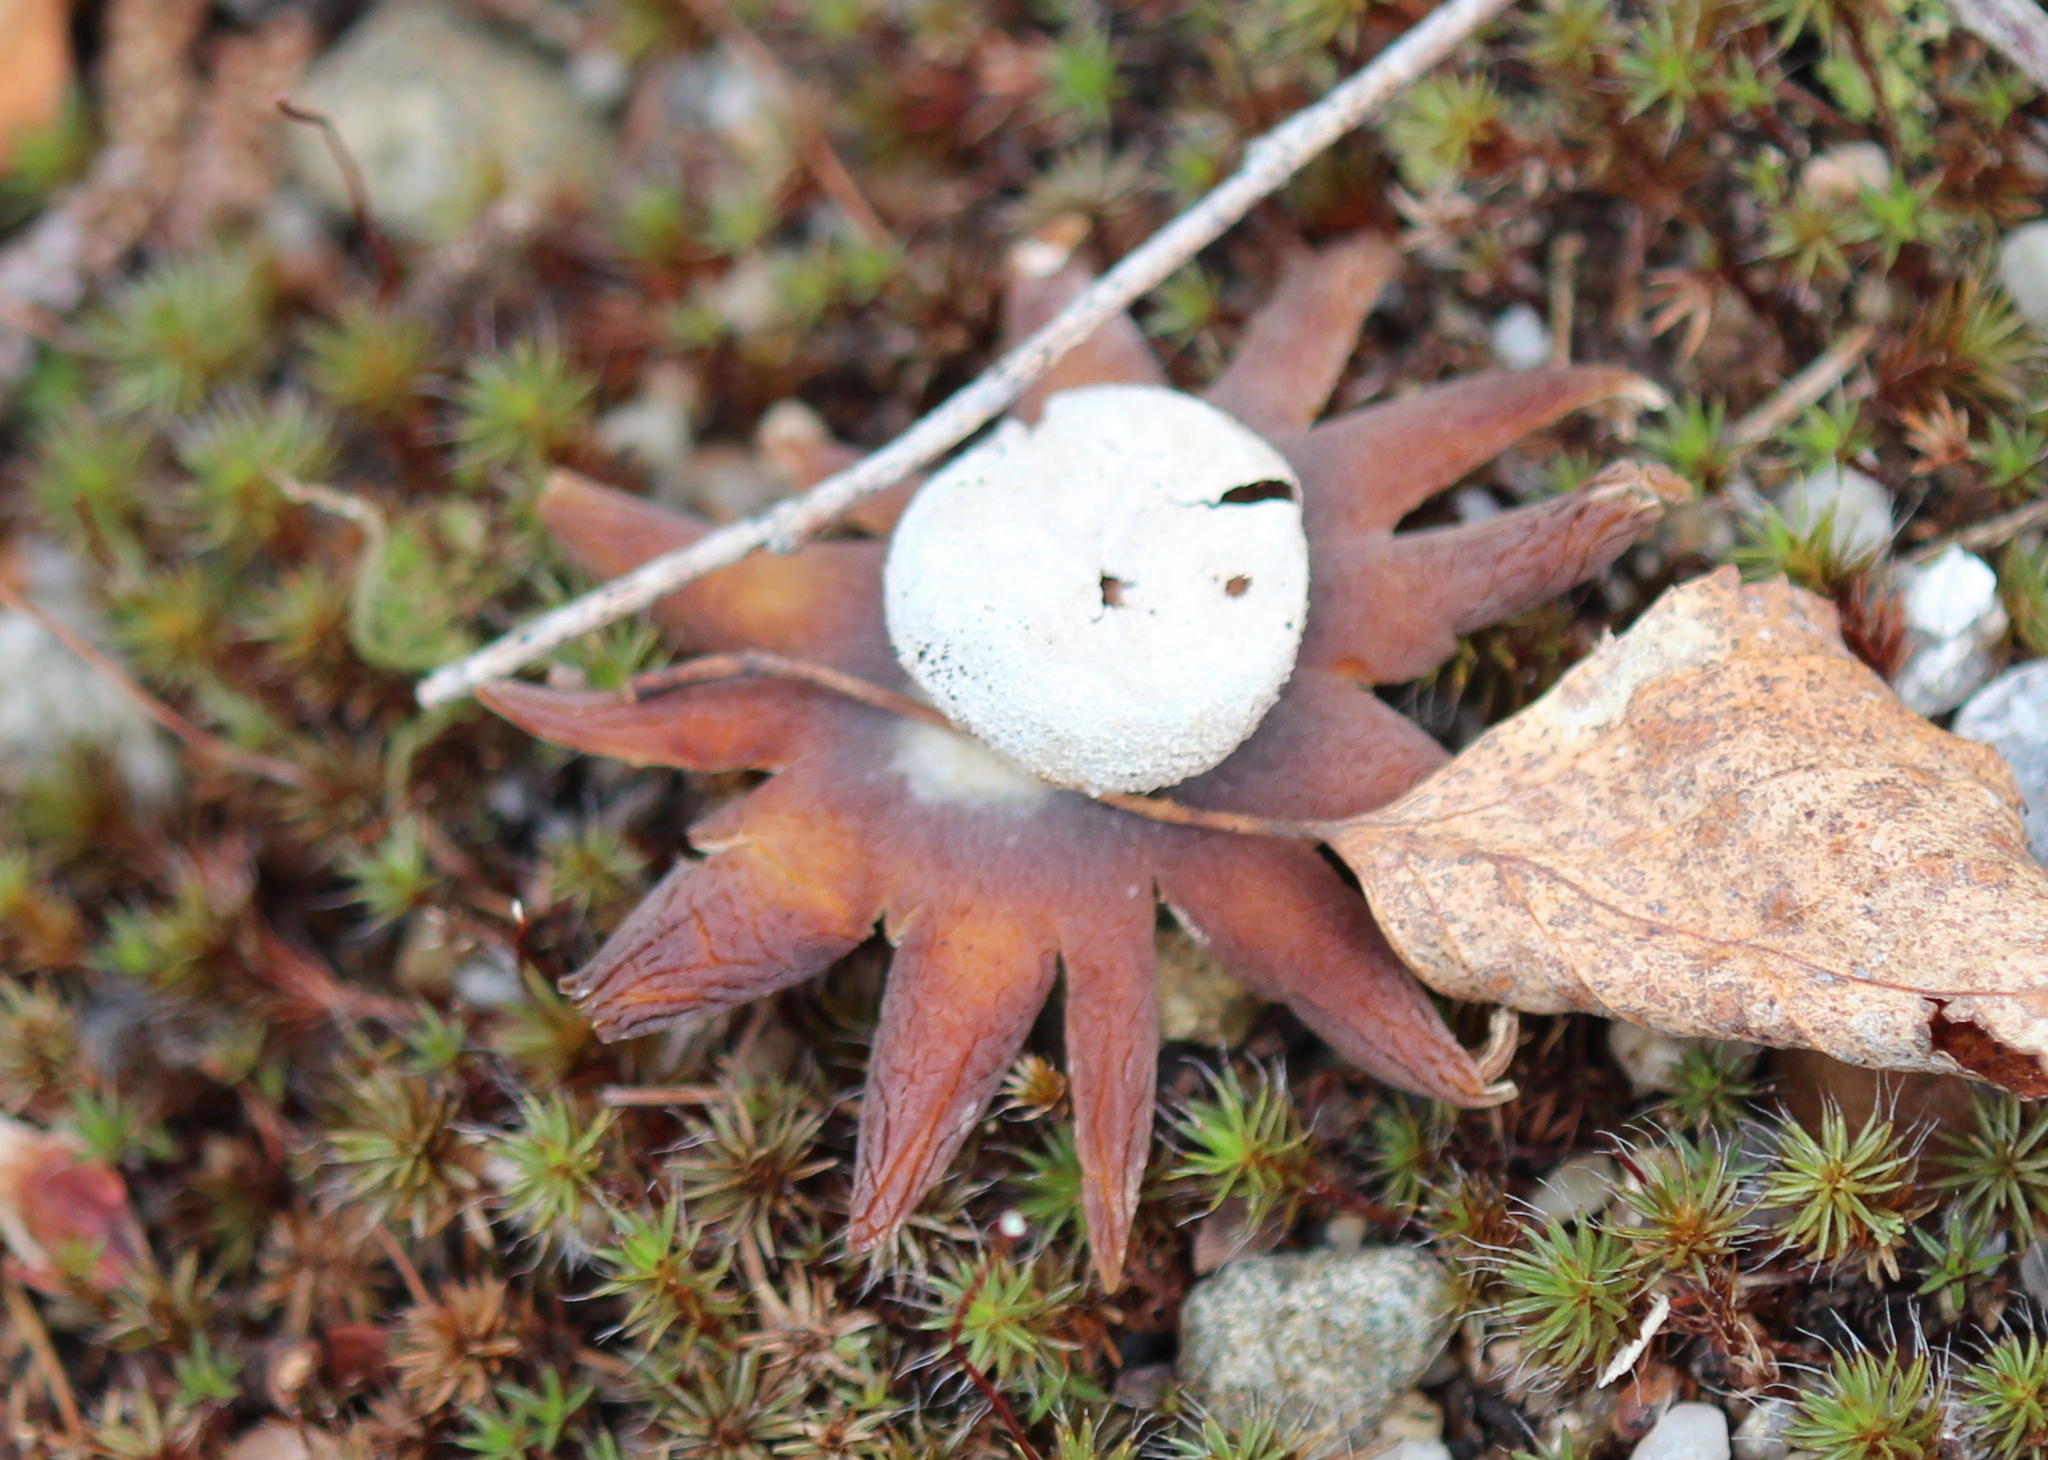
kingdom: Fungi
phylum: Basidiomycota
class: Agaricomycetes
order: Boletales
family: Diplocystidiaceae
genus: Astraeus
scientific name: Astraeus hygrometricus
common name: Barometer earthstar
